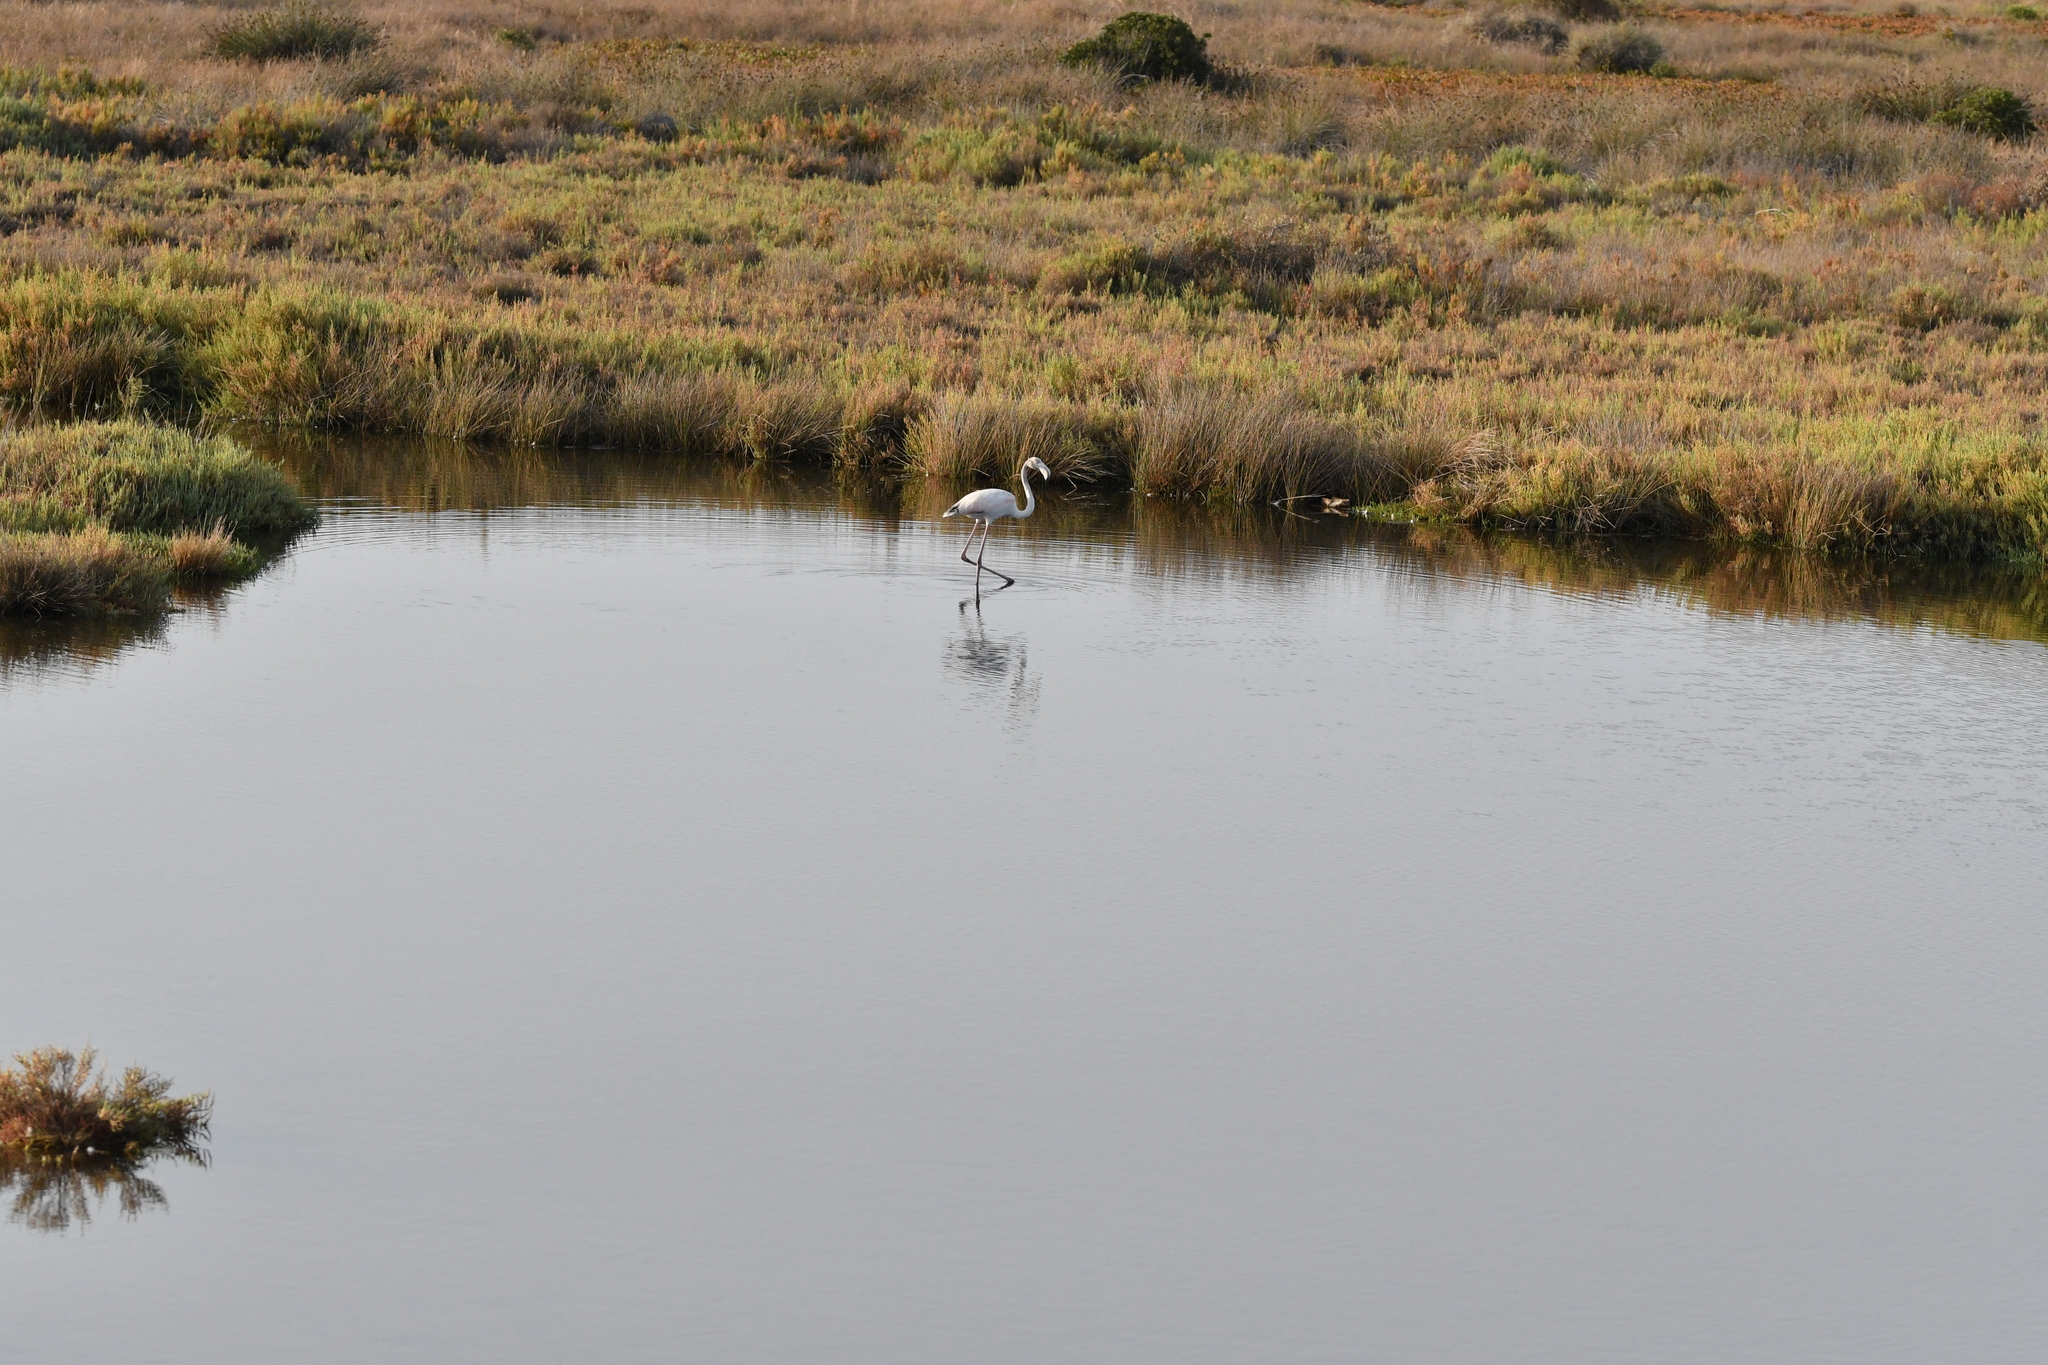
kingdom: Animalia
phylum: Chordata
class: Aves
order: Phoenicopteriformes
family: Phoenicopteridae
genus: Phoenicopterus
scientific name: Phoenicopterus roseus
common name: Greater flamingo
